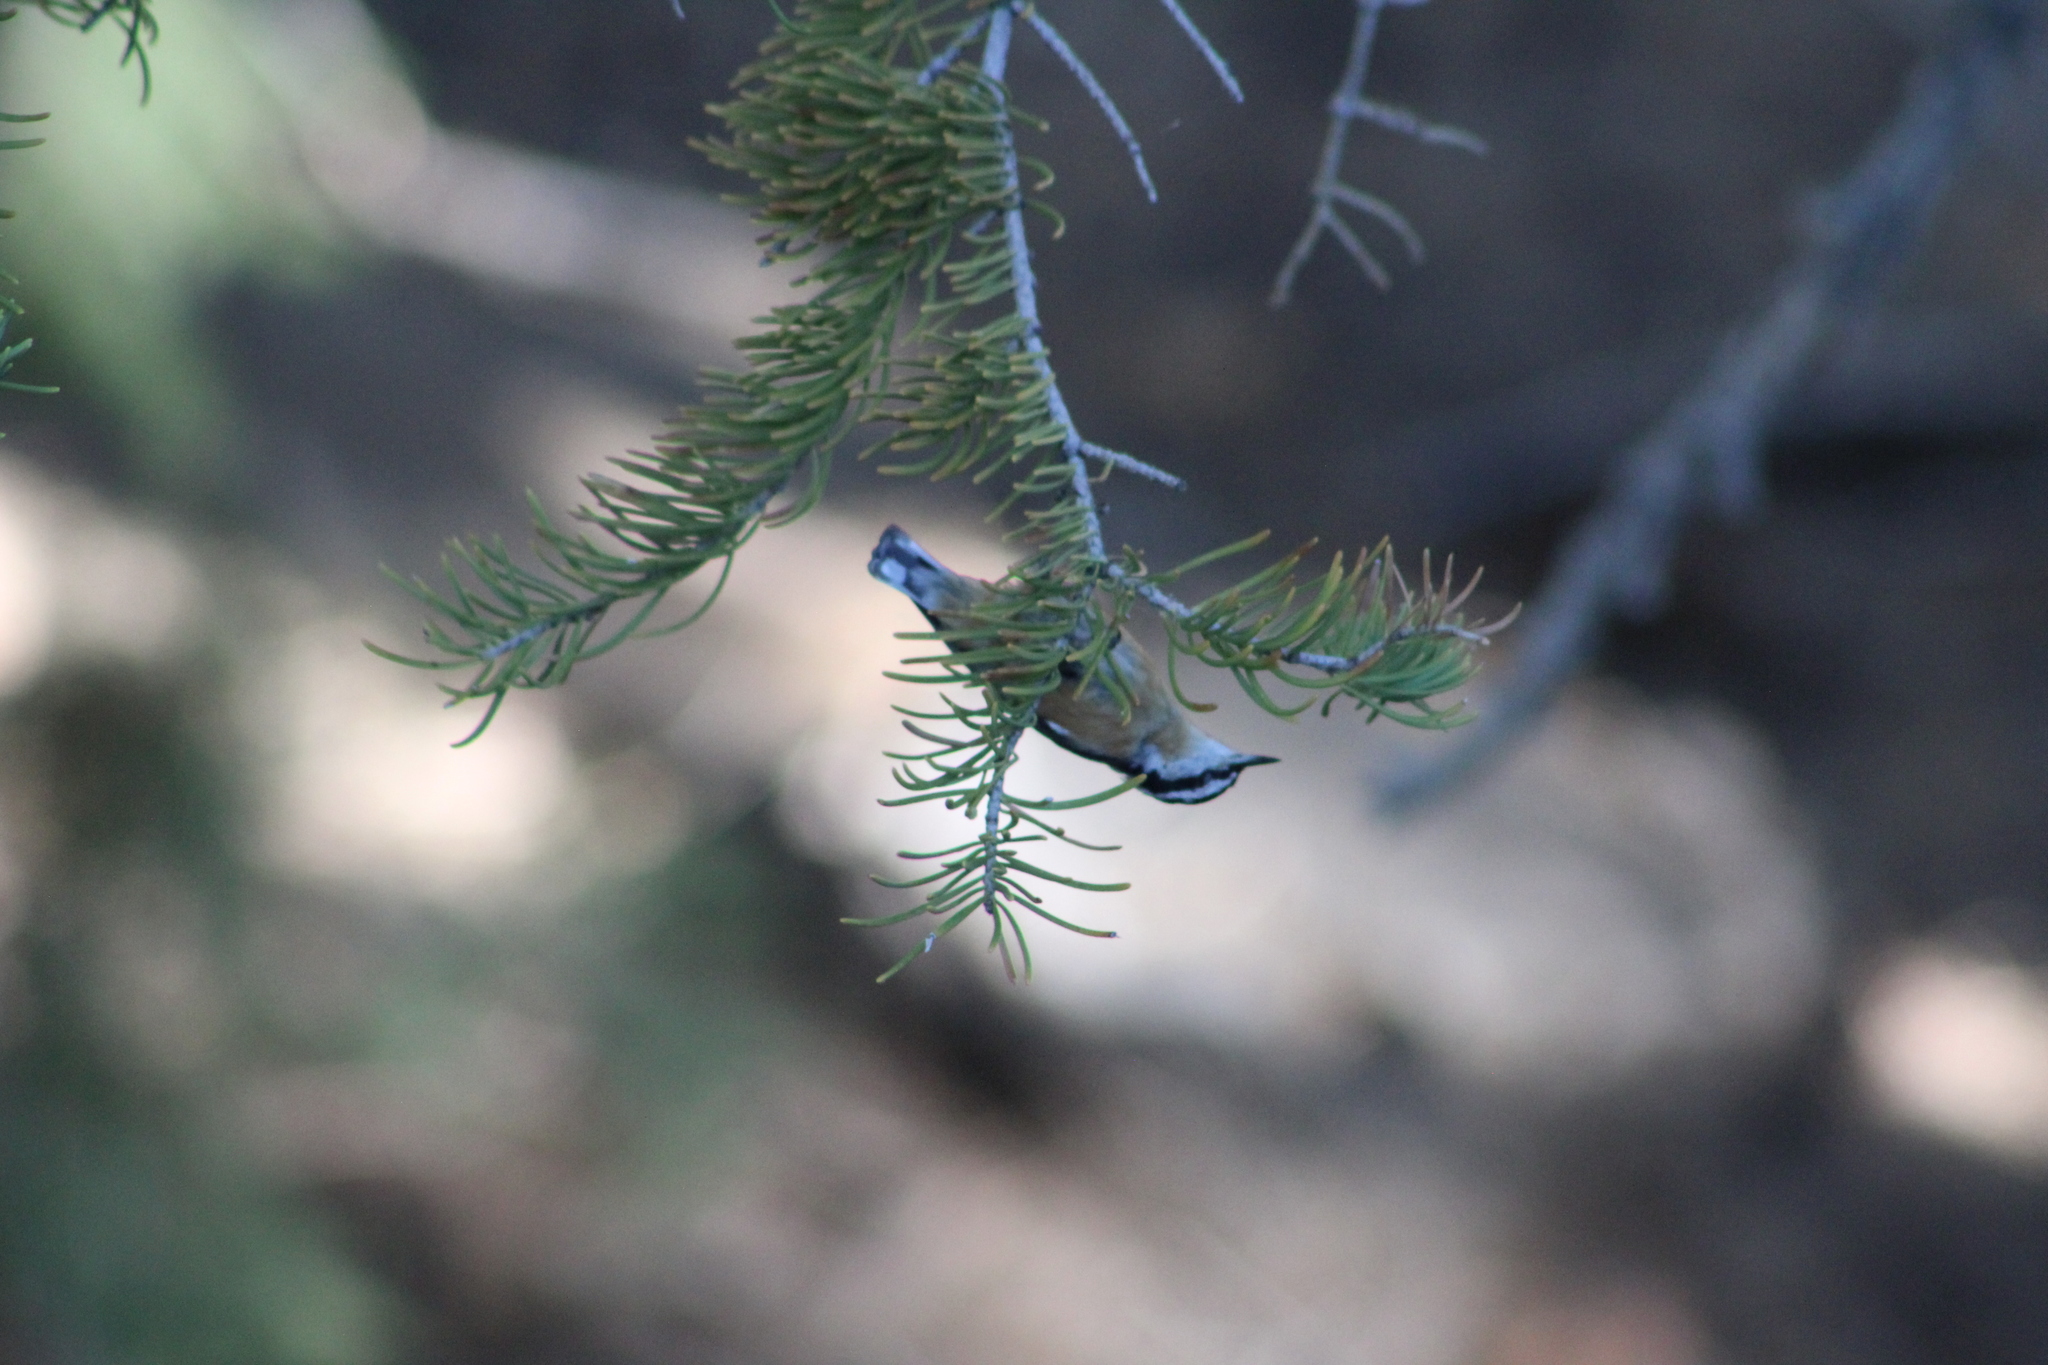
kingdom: Animalia
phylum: Chordata
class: Aves
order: Passeriformes
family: Sittidae
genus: Sitta
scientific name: Sitta canadensis
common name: Red-breasted nuthatch
